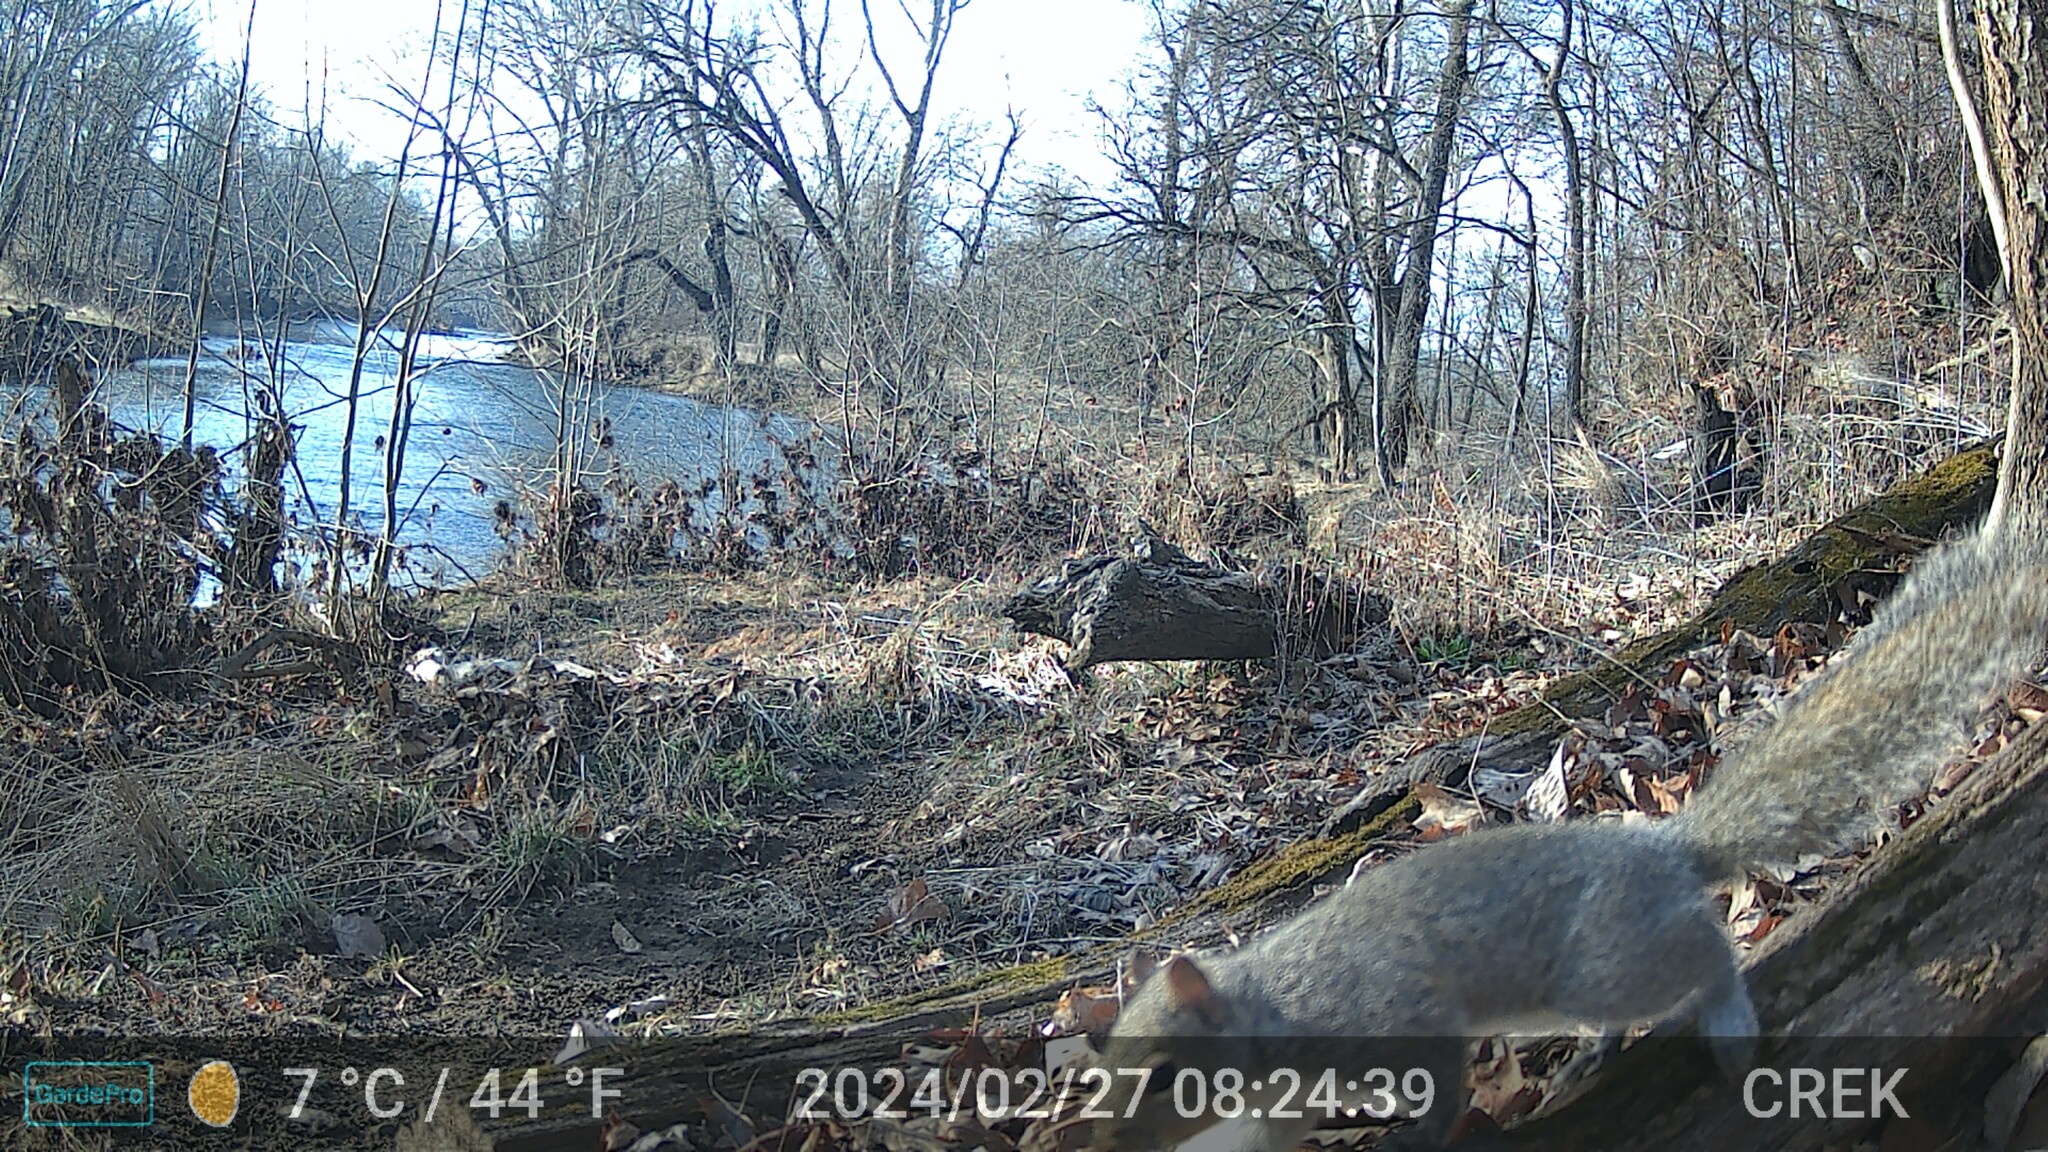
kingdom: Animalia
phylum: Chordata
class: Mammalia
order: Rodentia
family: Sciuridae
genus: Sciurus
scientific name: Sciurus carolinensis
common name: Eastern gray squirrel
